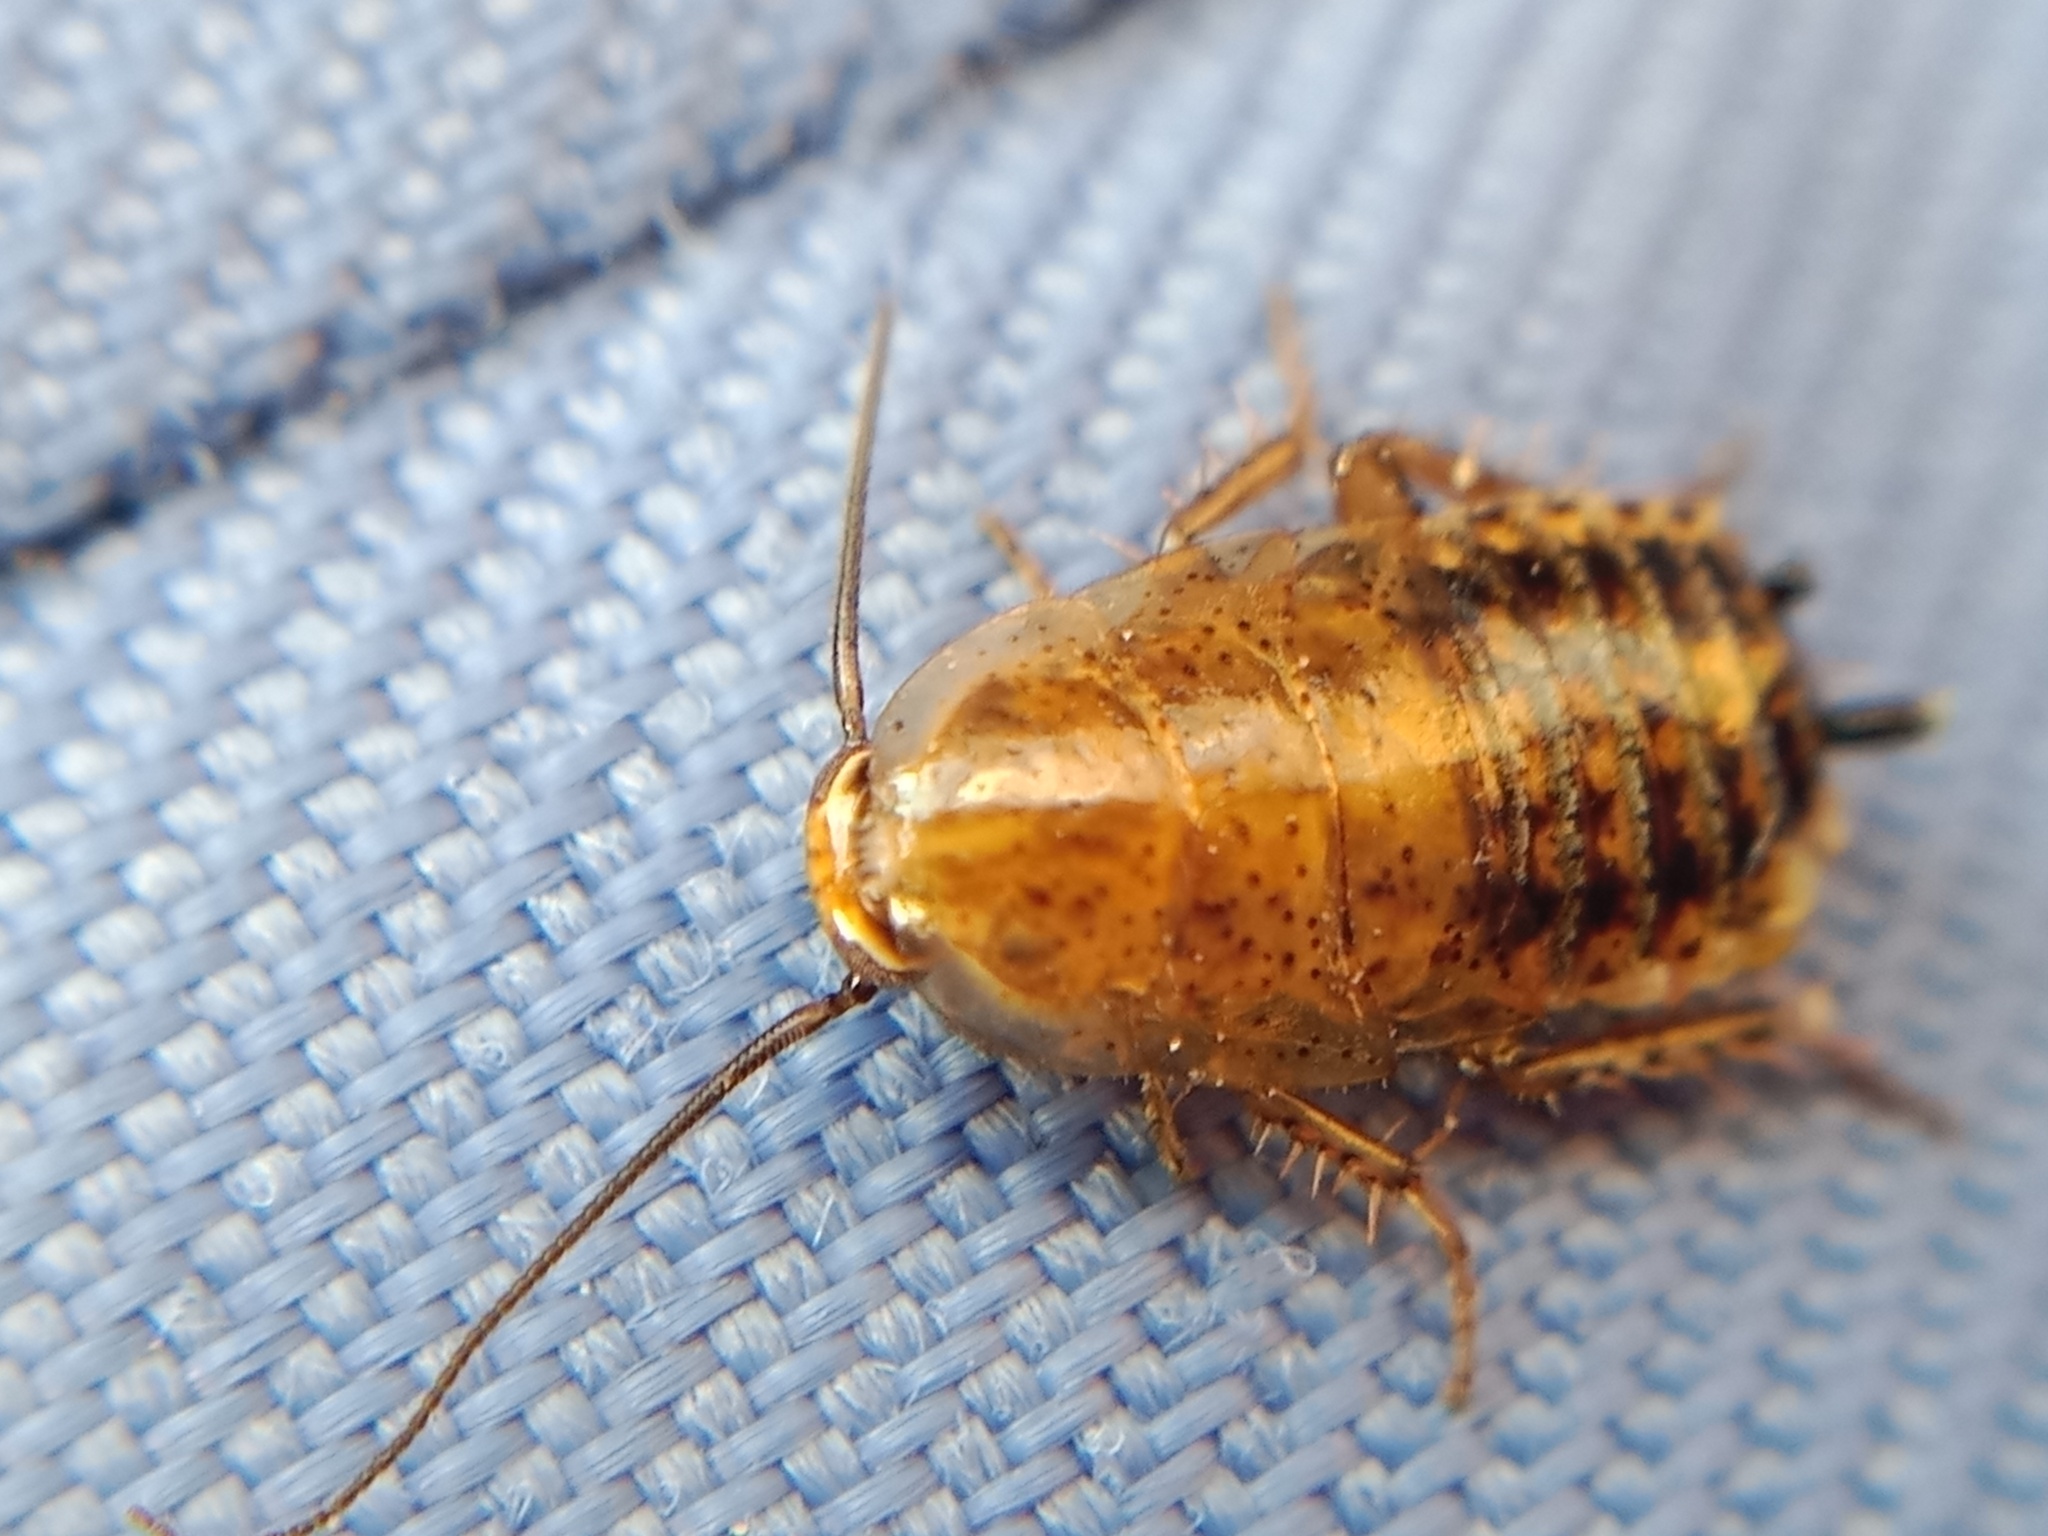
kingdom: Animalia
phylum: Arthropoda
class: Insecta
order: Blattodea
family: Ectobiidae
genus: Ectobius
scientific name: Ectobius lapponicus
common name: Dusky cockroach
